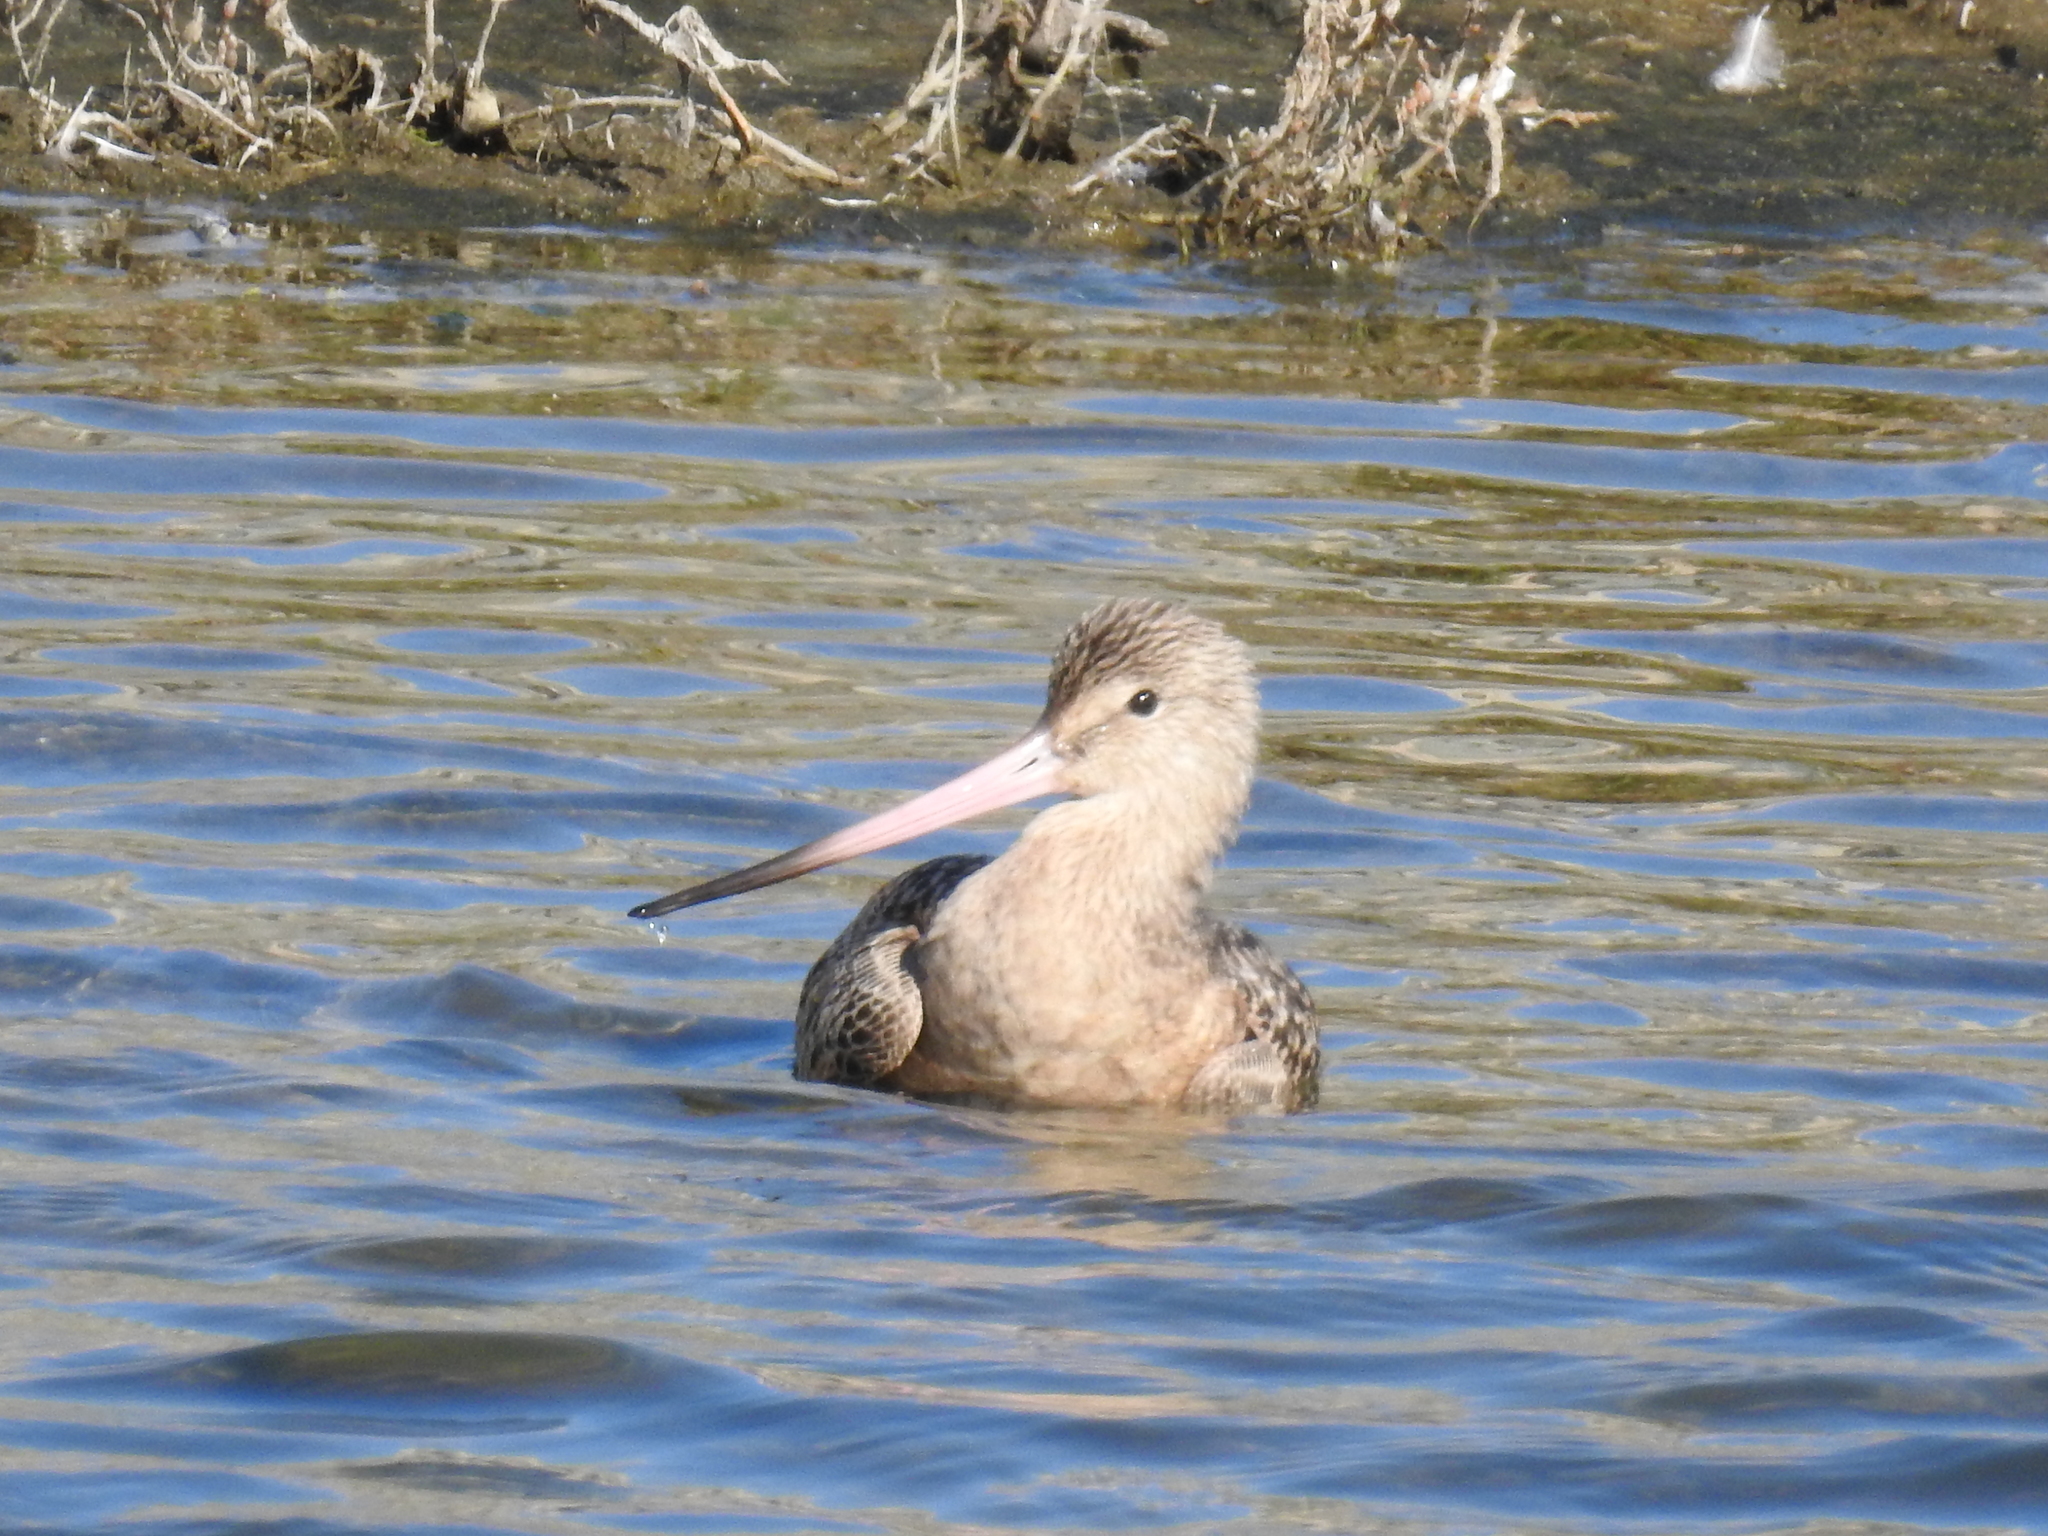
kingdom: Animalia
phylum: Chordata
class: Aves
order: Charadriiformes
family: Scolopacidae
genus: Limosa
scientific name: Limosa fedoa
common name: Marbled godwit
